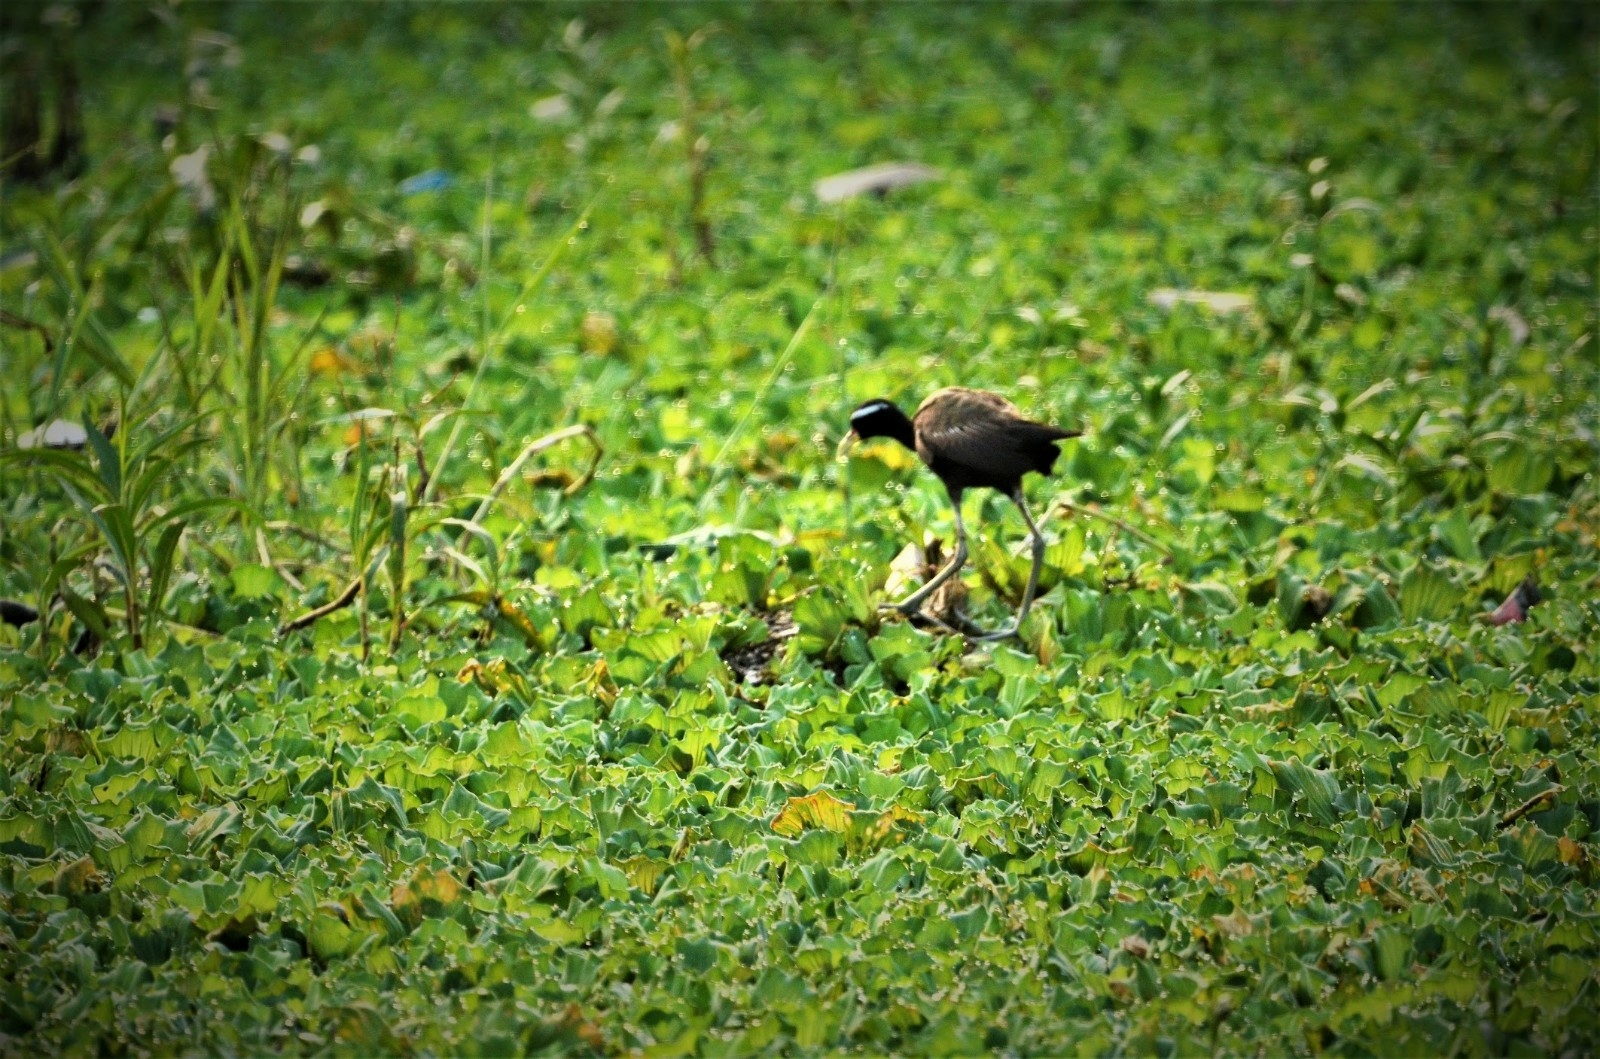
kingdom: Animalia
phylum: Chordata
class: Aves
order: Charadriiformes
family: Jacanidae
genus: Metopidius
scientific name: Metopidius indicus
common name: Bronze-winged jacana
